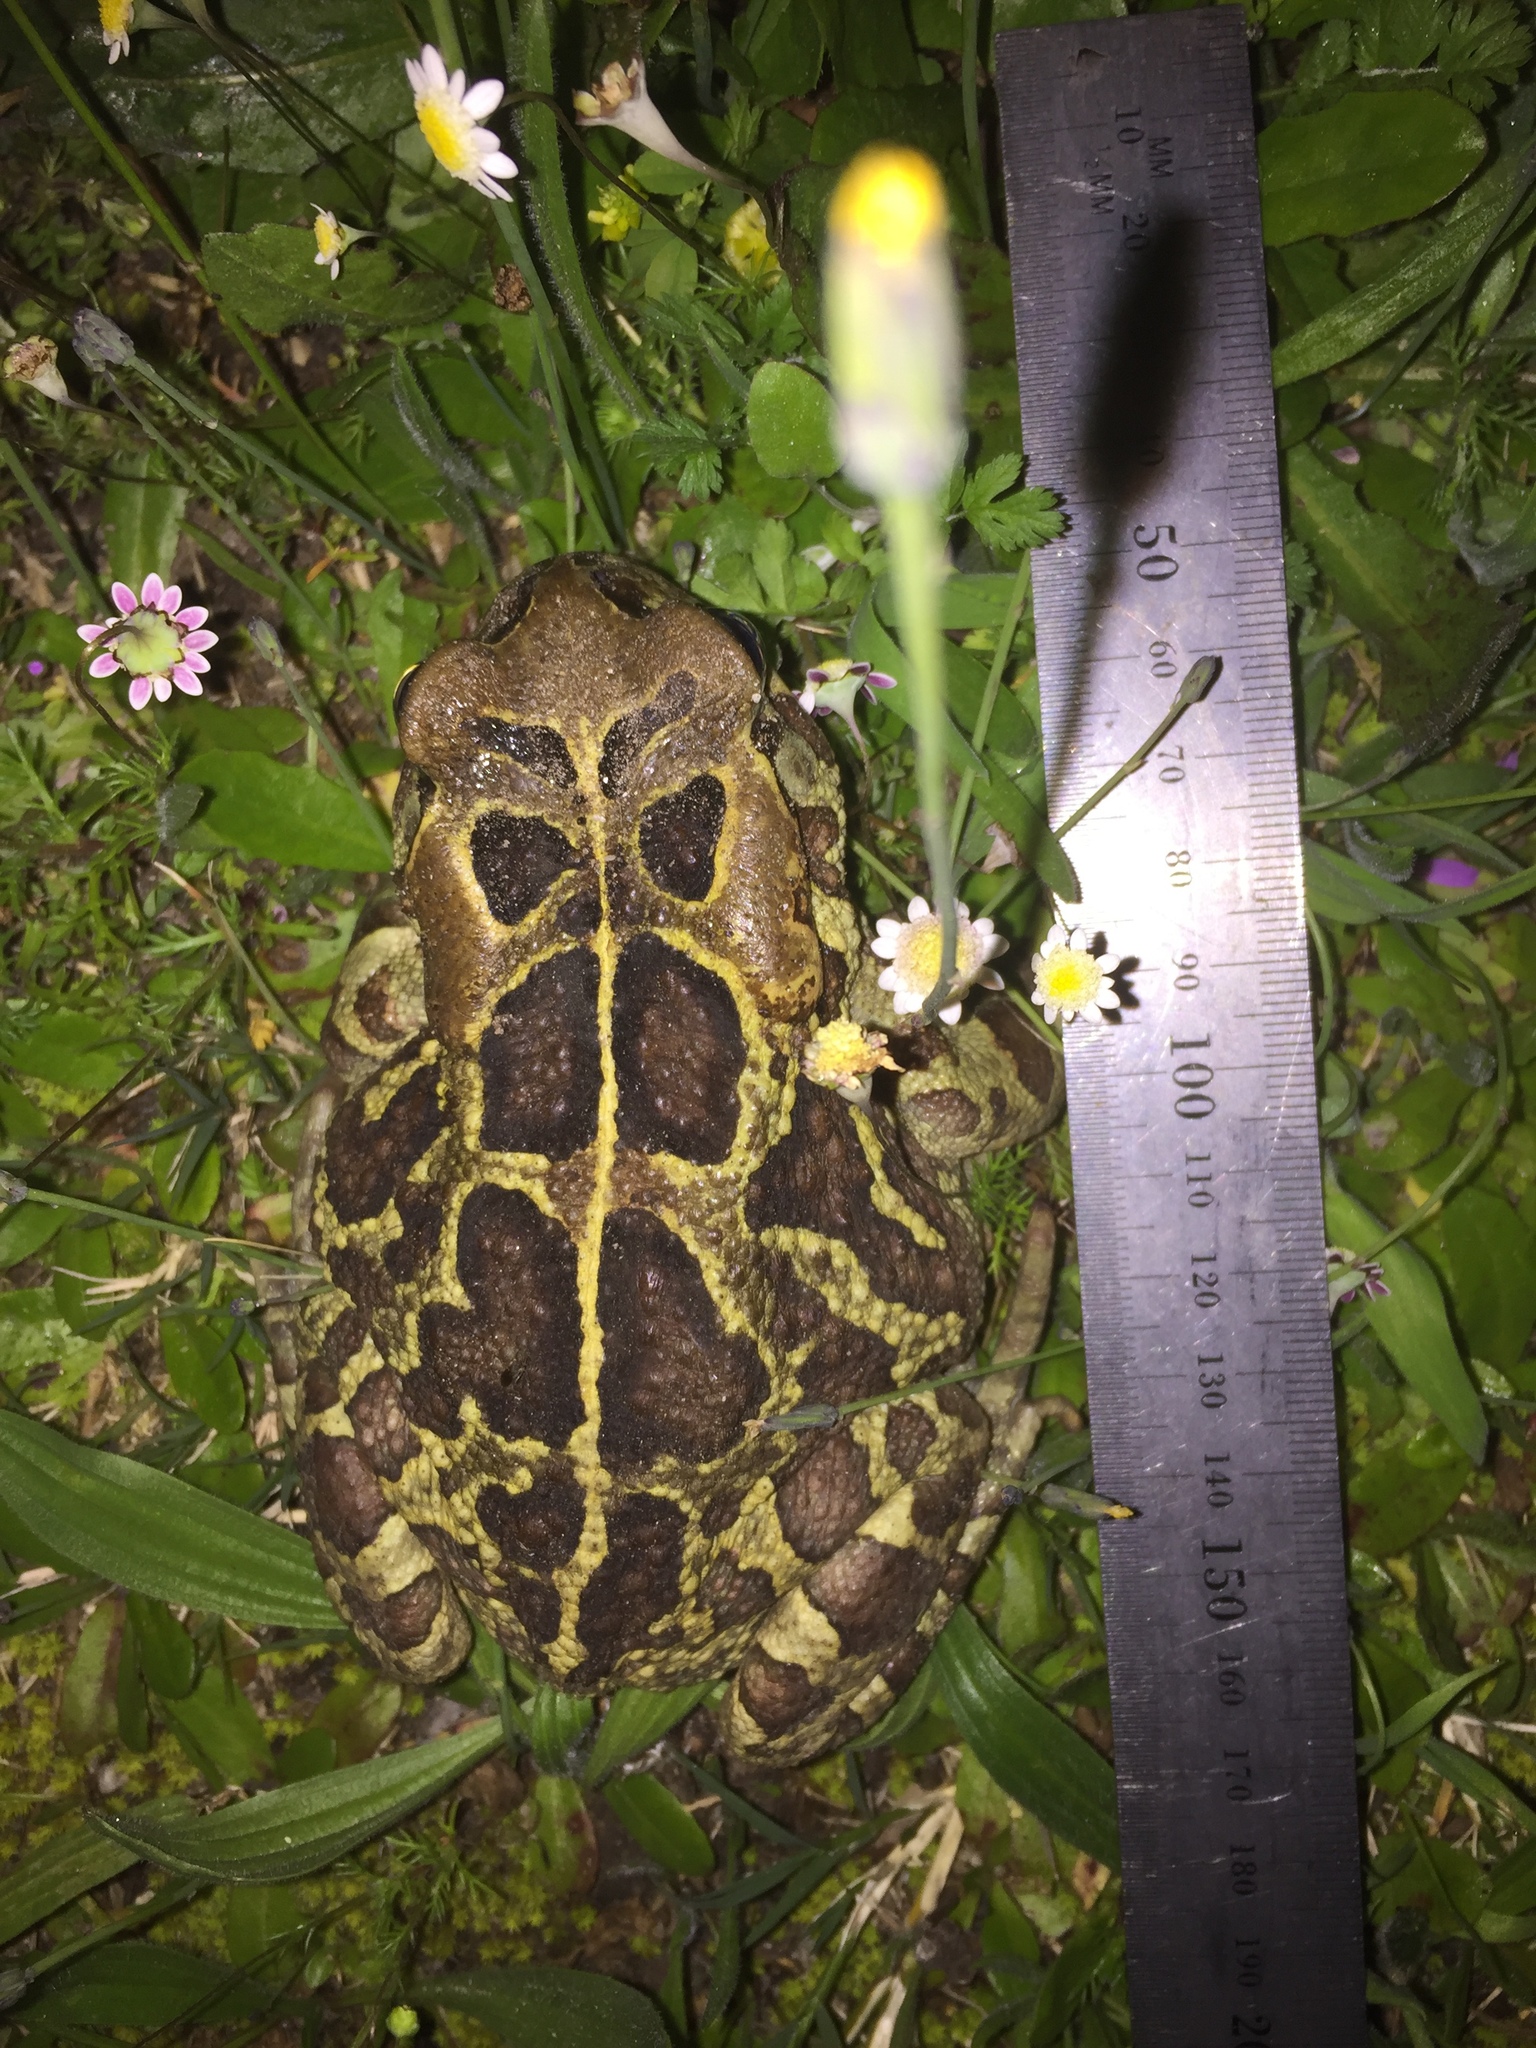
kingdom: Animalia
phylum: Chordata
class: Amphibia
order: Anura
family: Bufonidae
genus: Sclerophrys
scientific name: Sclerophrys pantherina
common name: Panther toad
